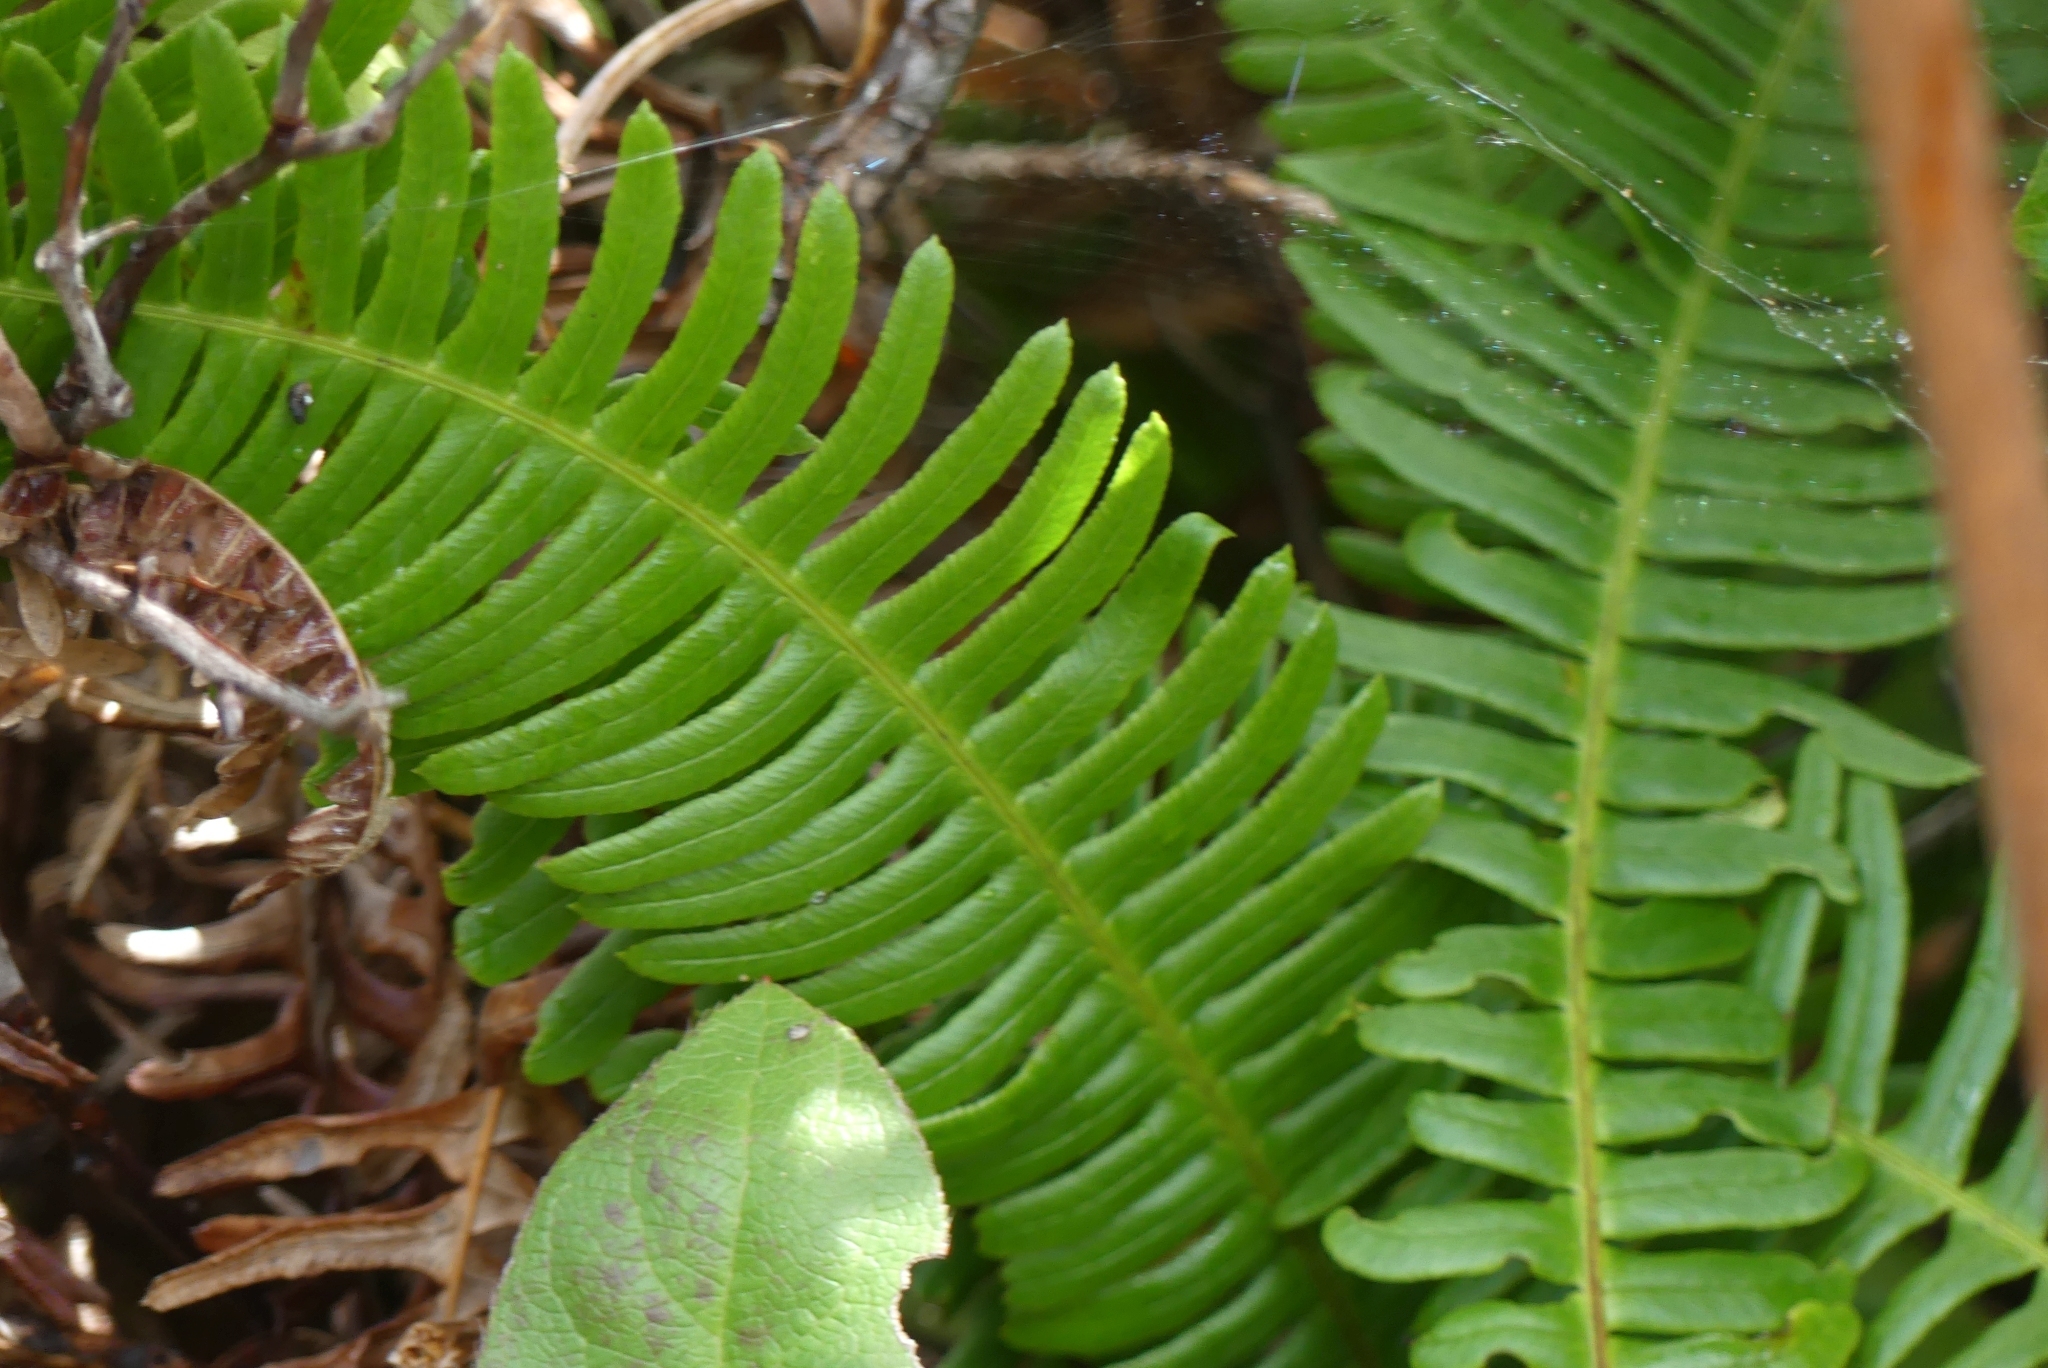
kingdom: Plantae
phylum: Tracheophyta
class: Polypodiopsida
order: Polypodiales
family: Blechnaceae
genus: Struthiopteris
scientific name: Struthiopteris spicant
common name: Deer fern
